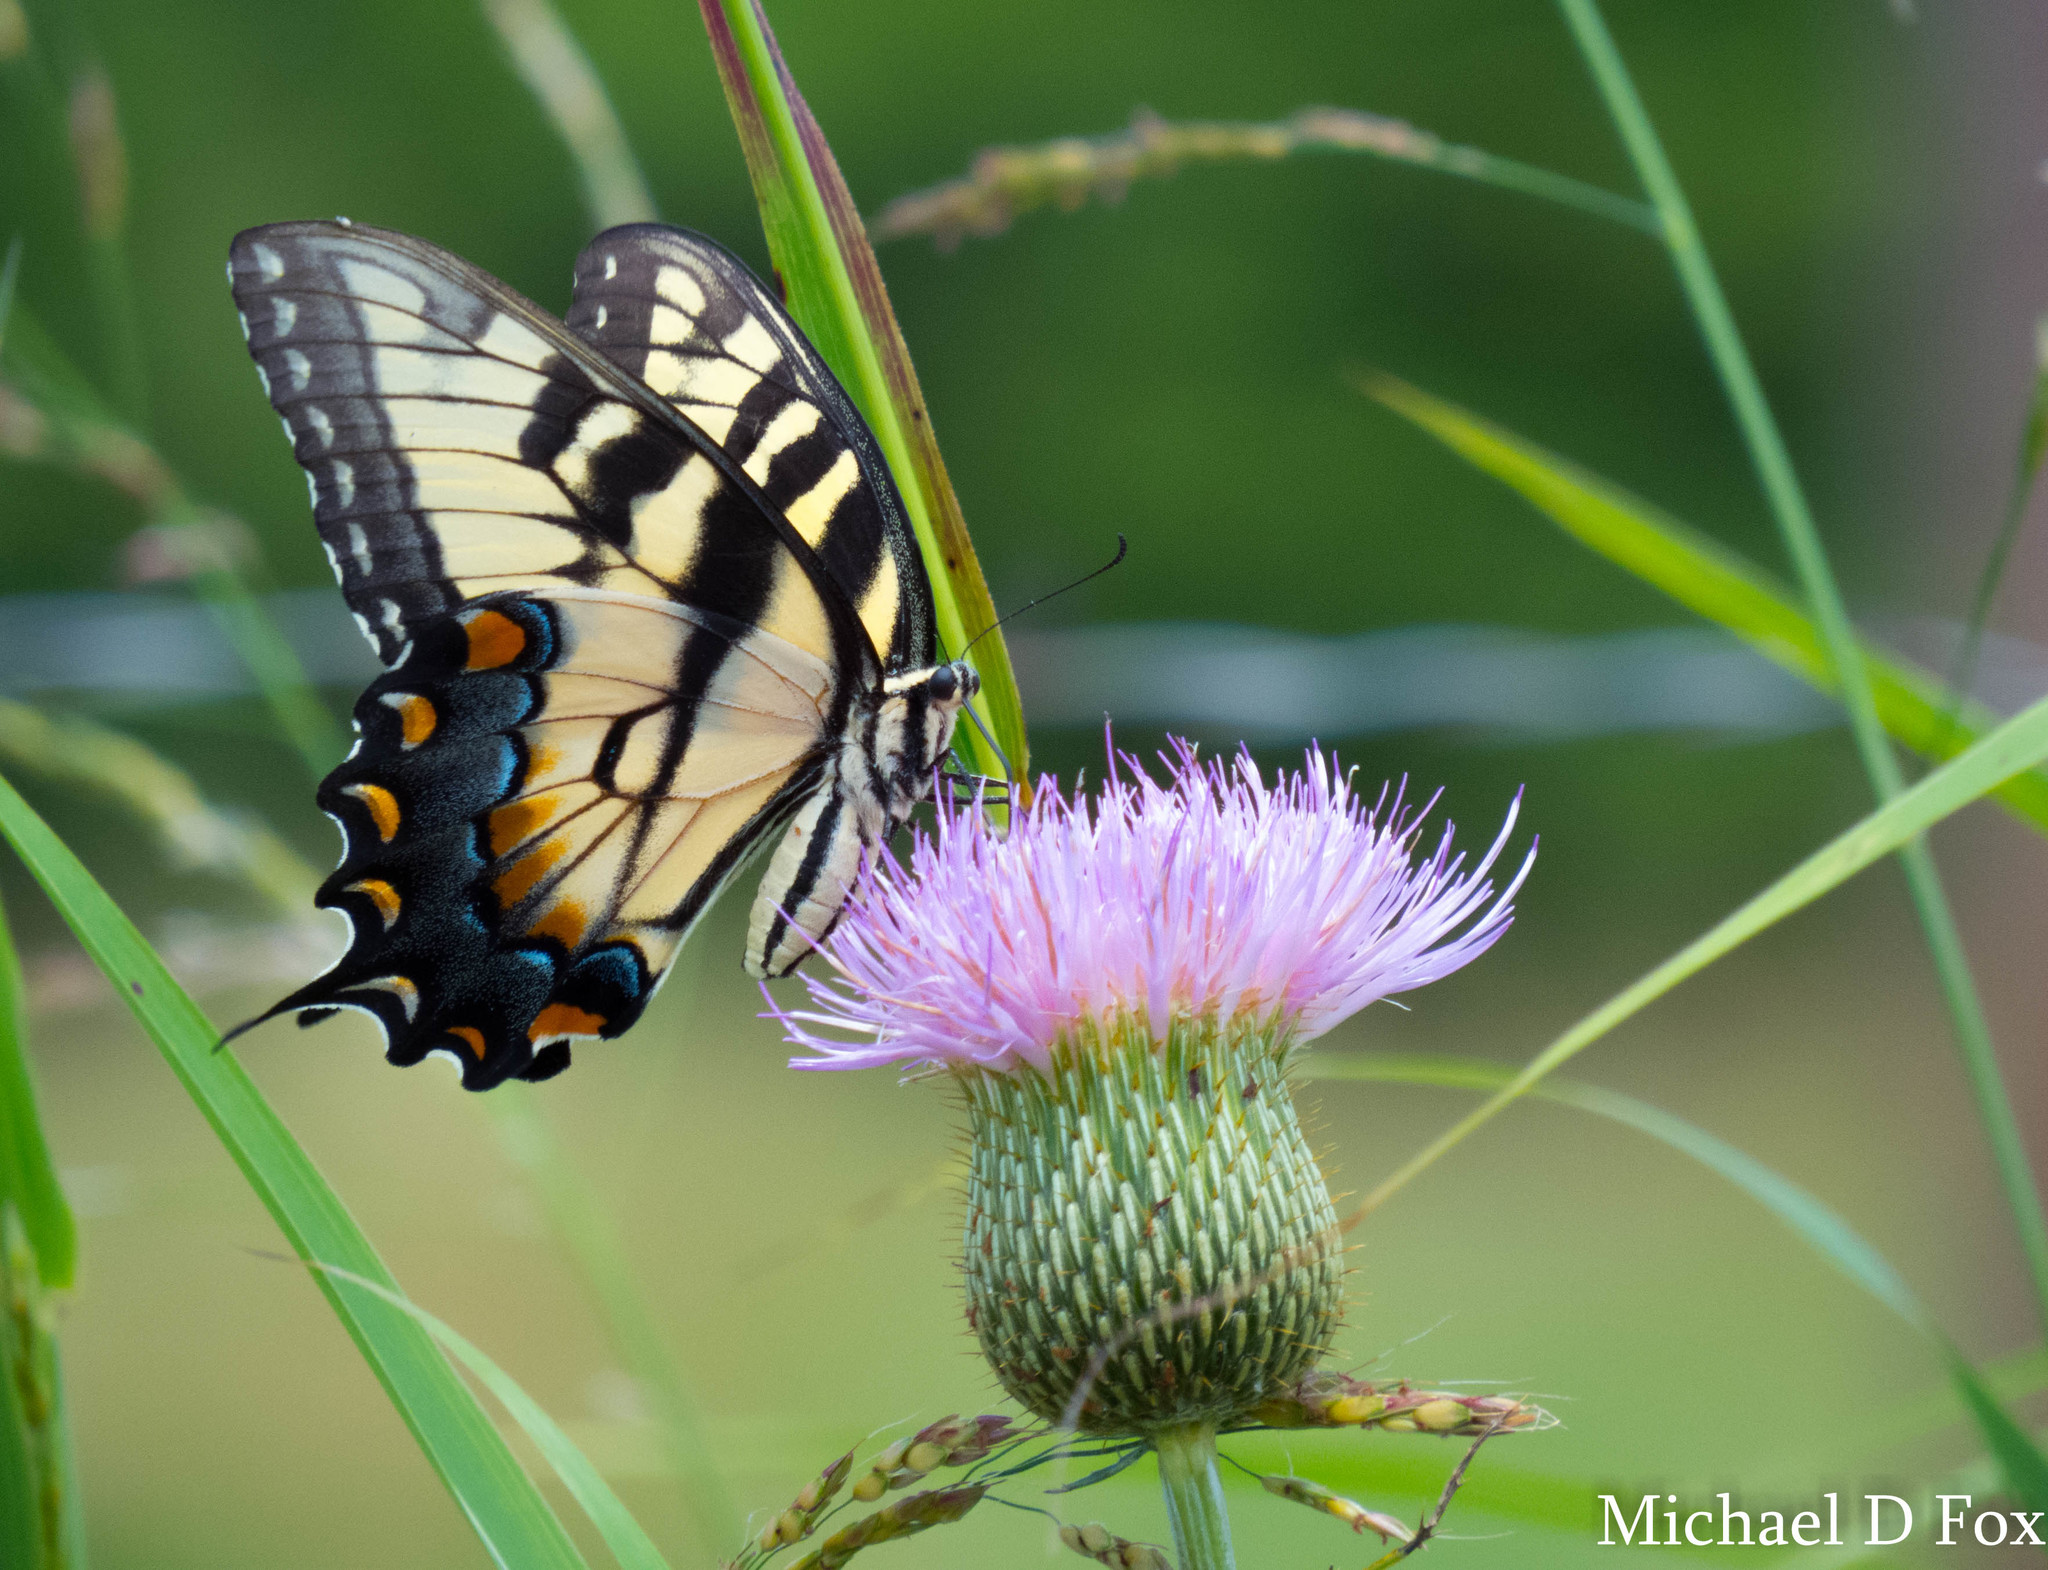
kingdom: Animalia
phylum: Arthropoda
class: Insecta
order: Lepidoptera
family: Papilionidae
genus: Papilio
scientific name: Papilio glaucus
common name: Tiger swallowtail
